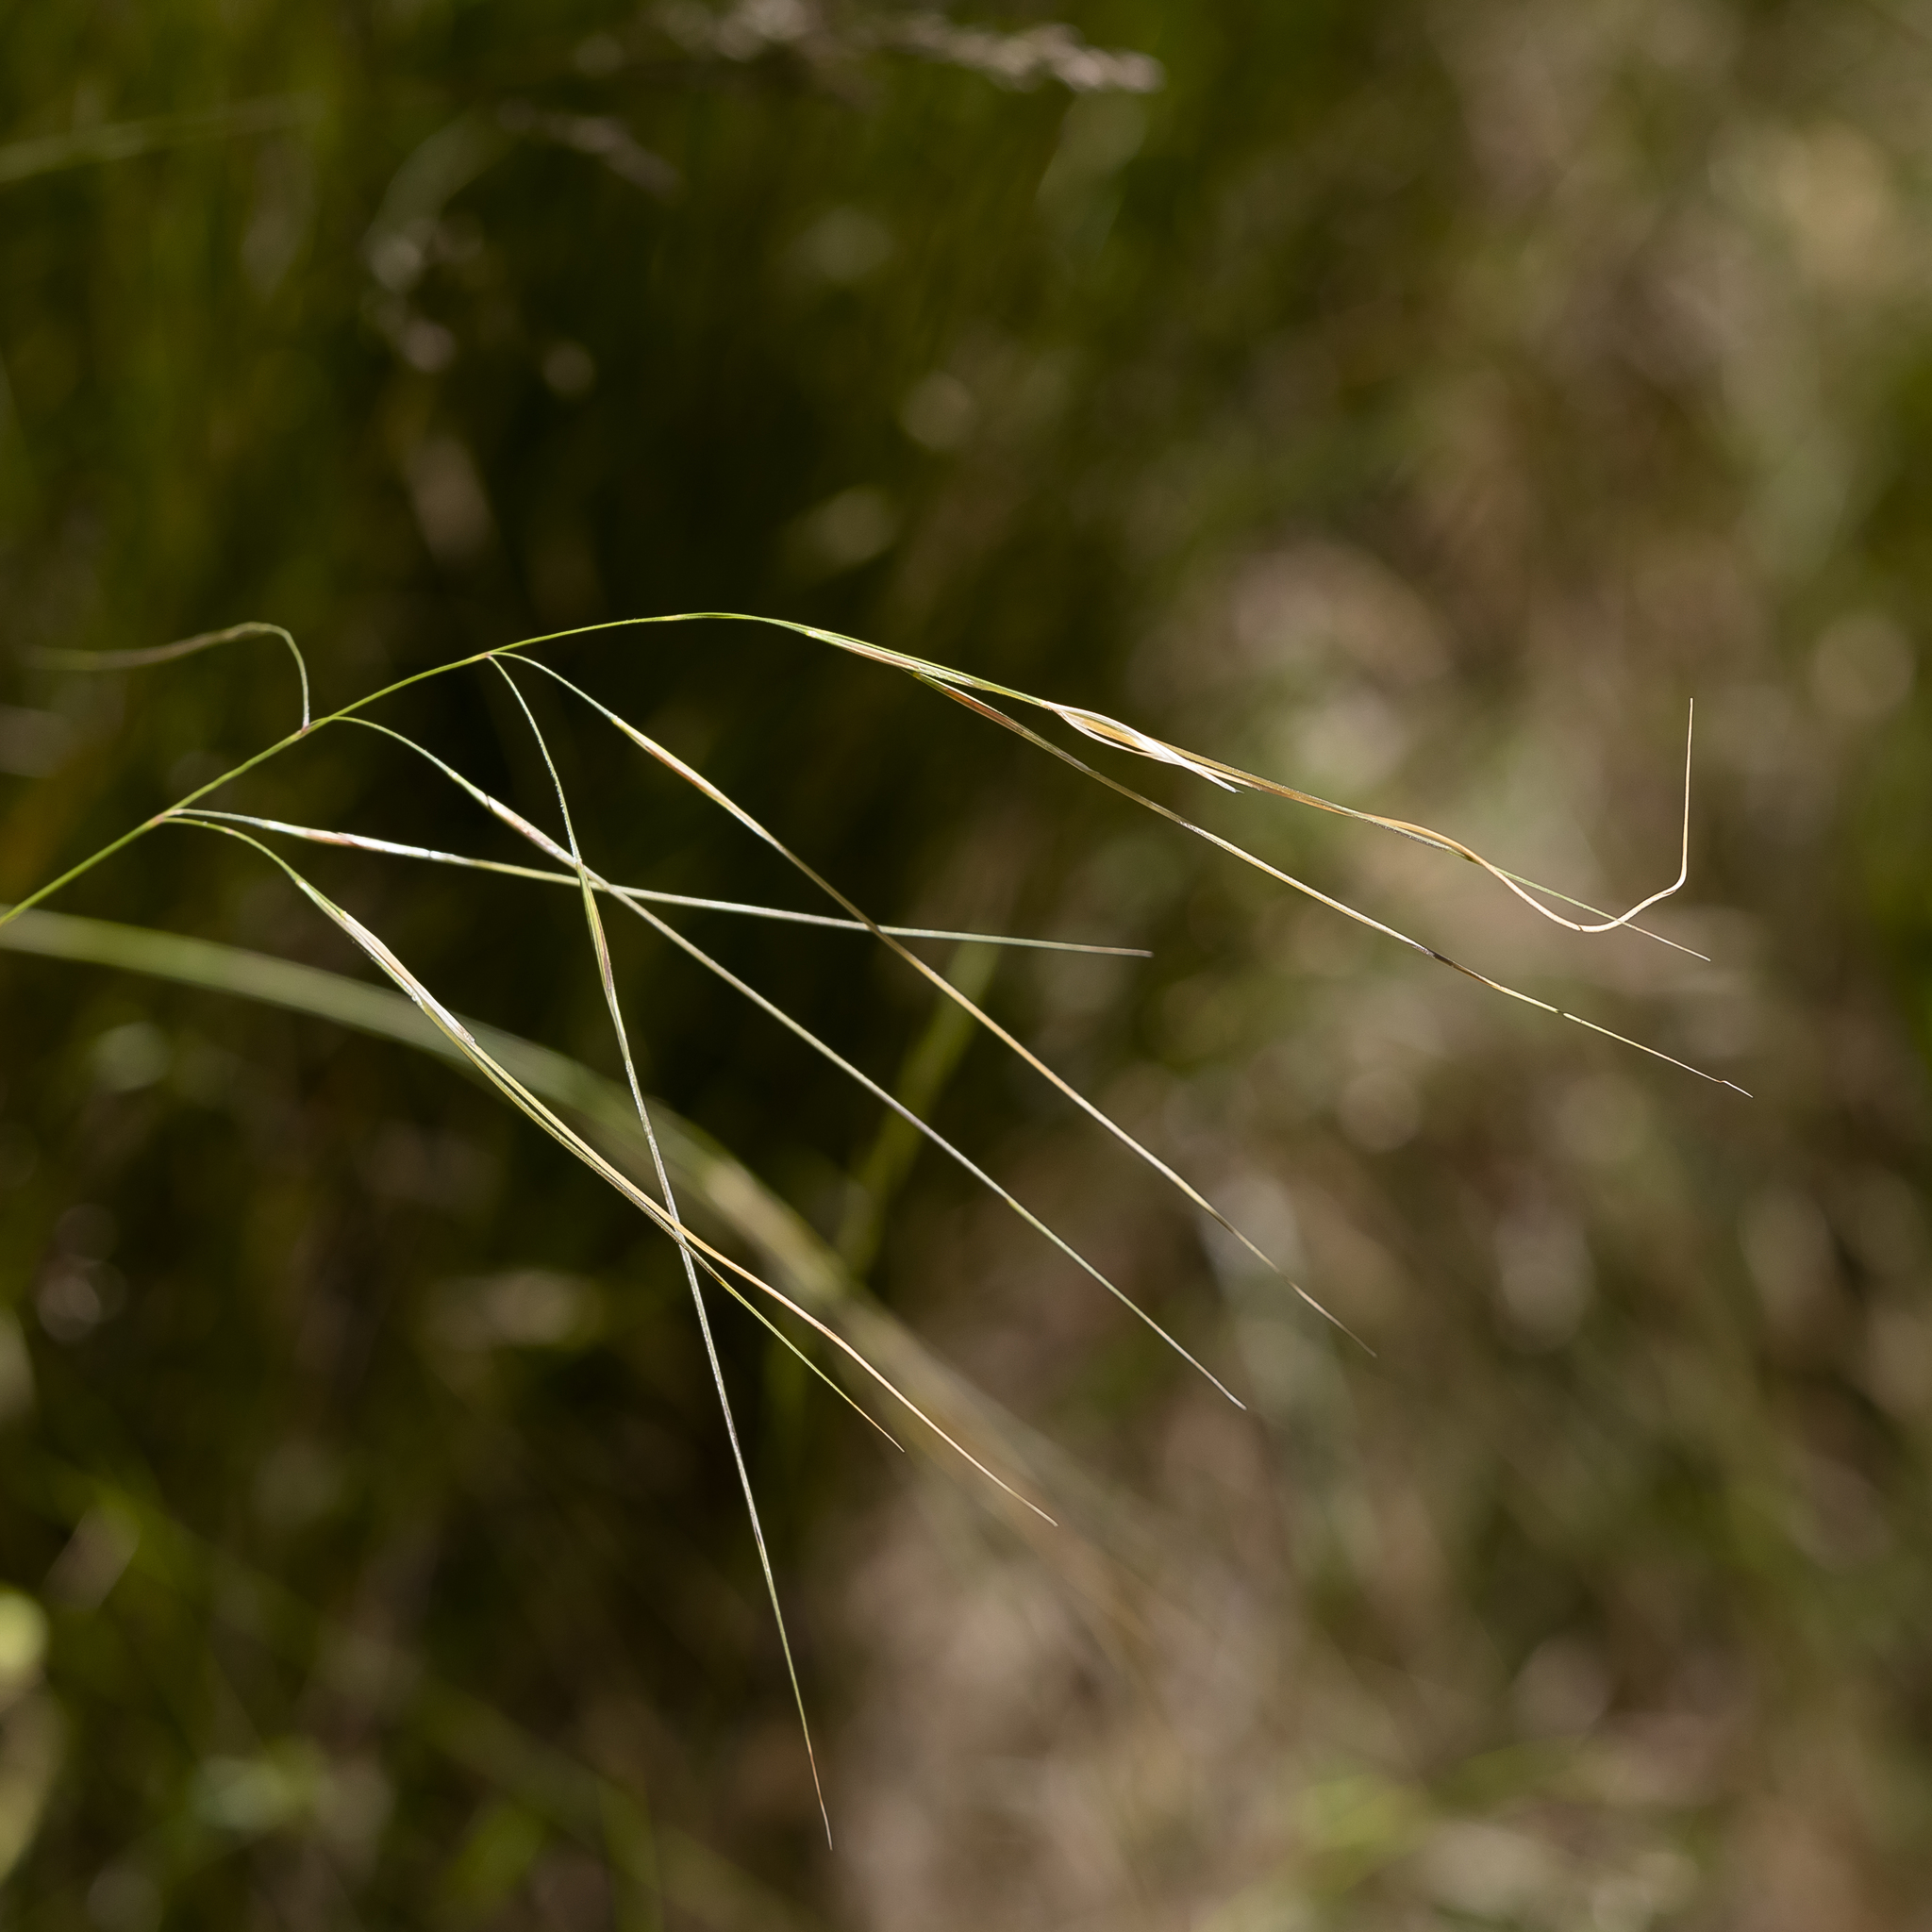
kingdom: Plantae
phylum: Tracheophyta
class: Liliopsida
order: Poales
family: Poaceae
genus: Austrostipa
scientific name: Austrostipa pubinodis
